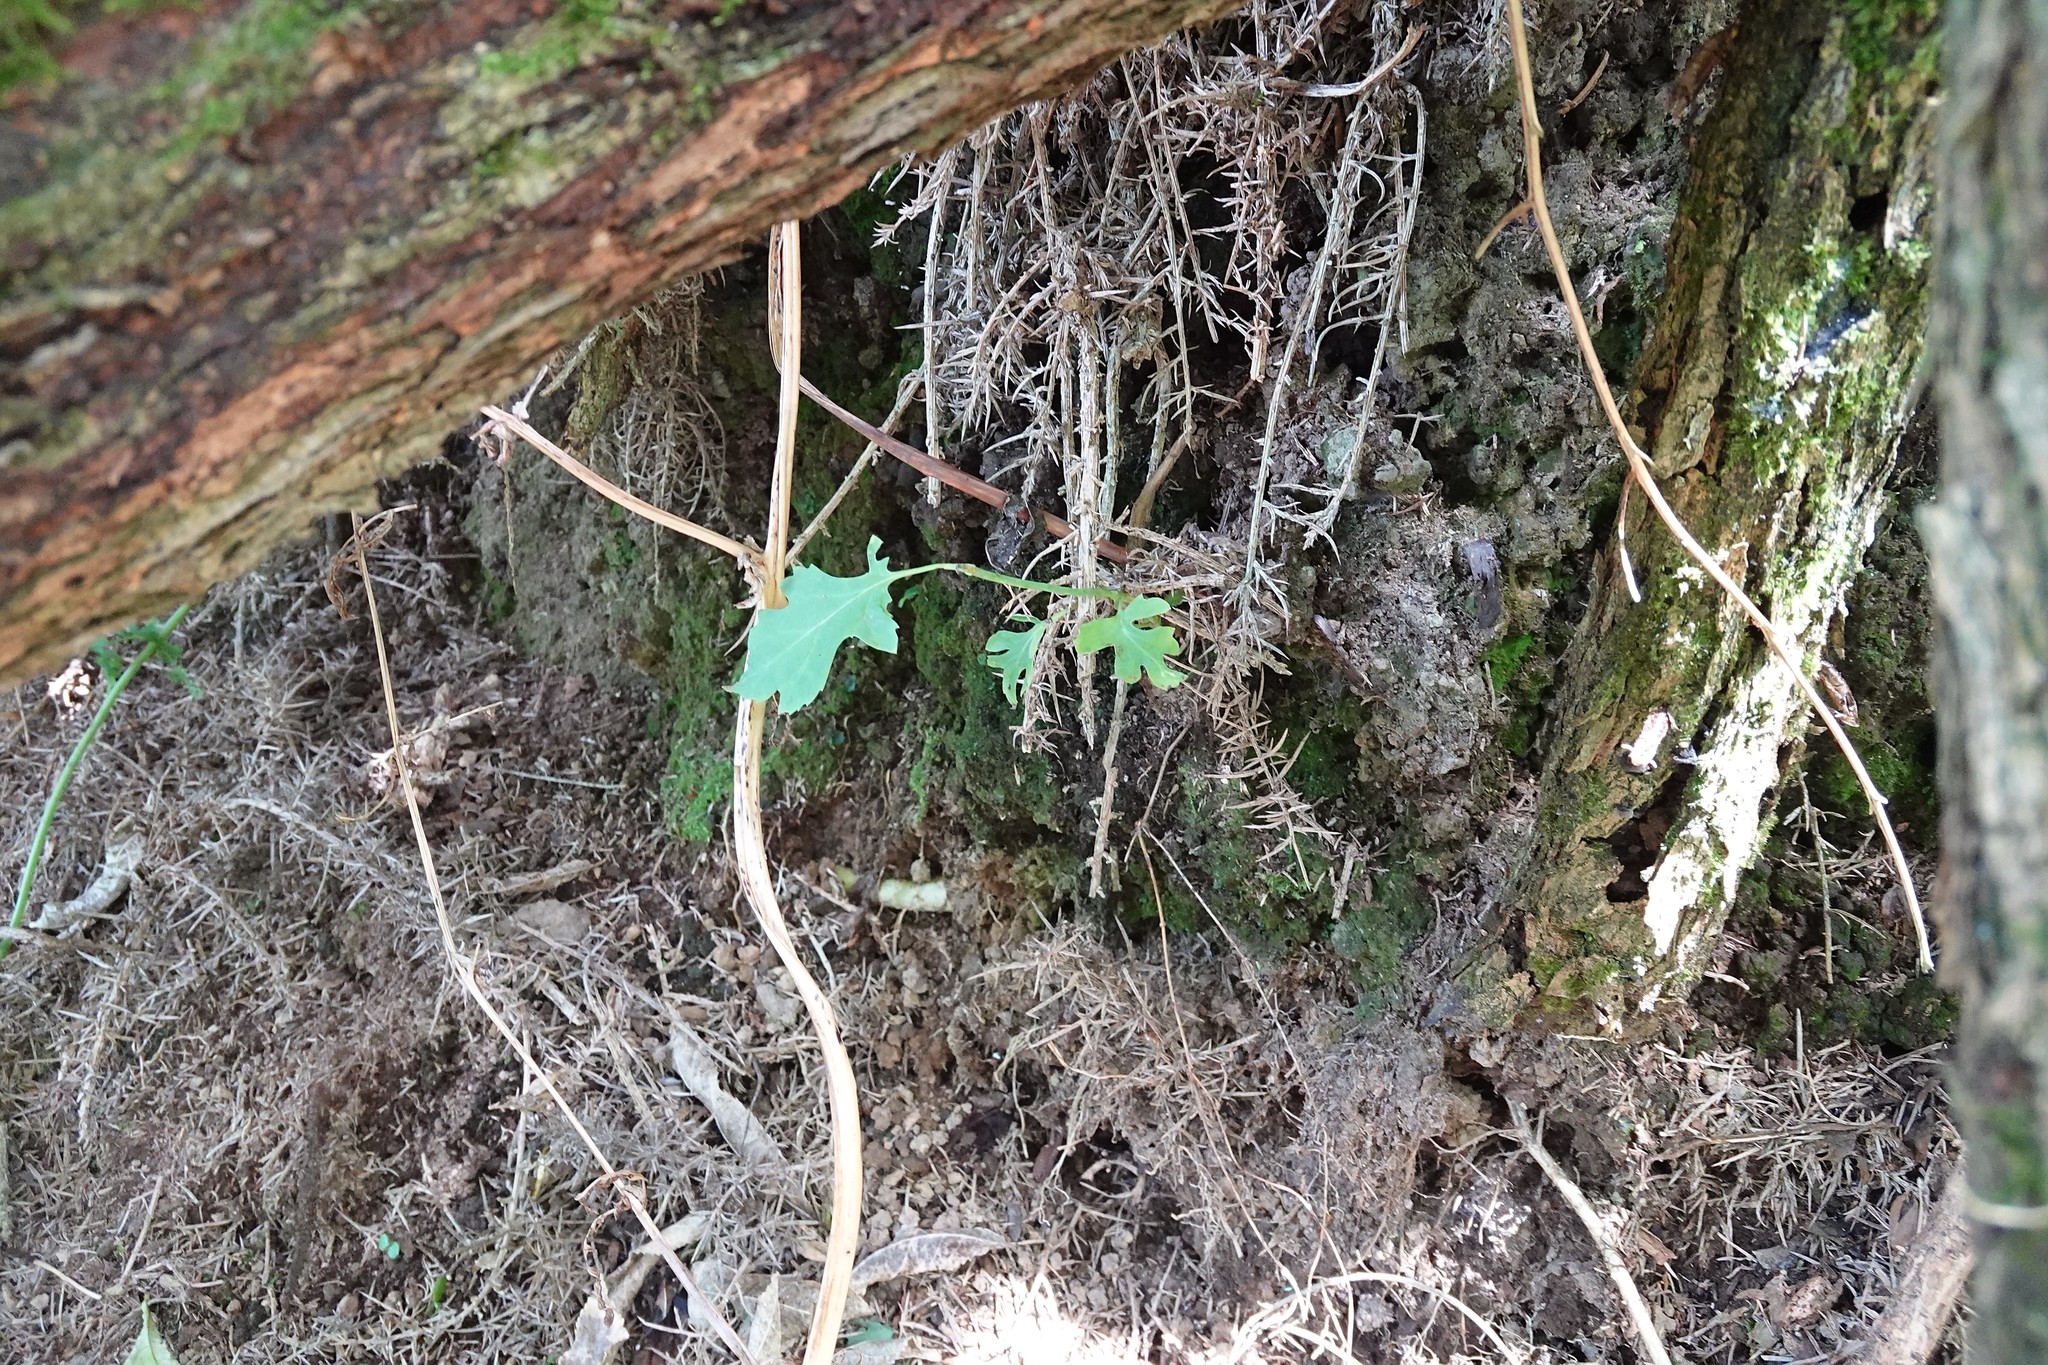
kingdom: Plantae
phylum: Tracheophyta
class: Magnoliopsida
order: Dipsacales
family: Caprifoliaceae
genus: Leycesteria
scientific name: Leycesteria formosa
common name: Himalayan honeysuckle
